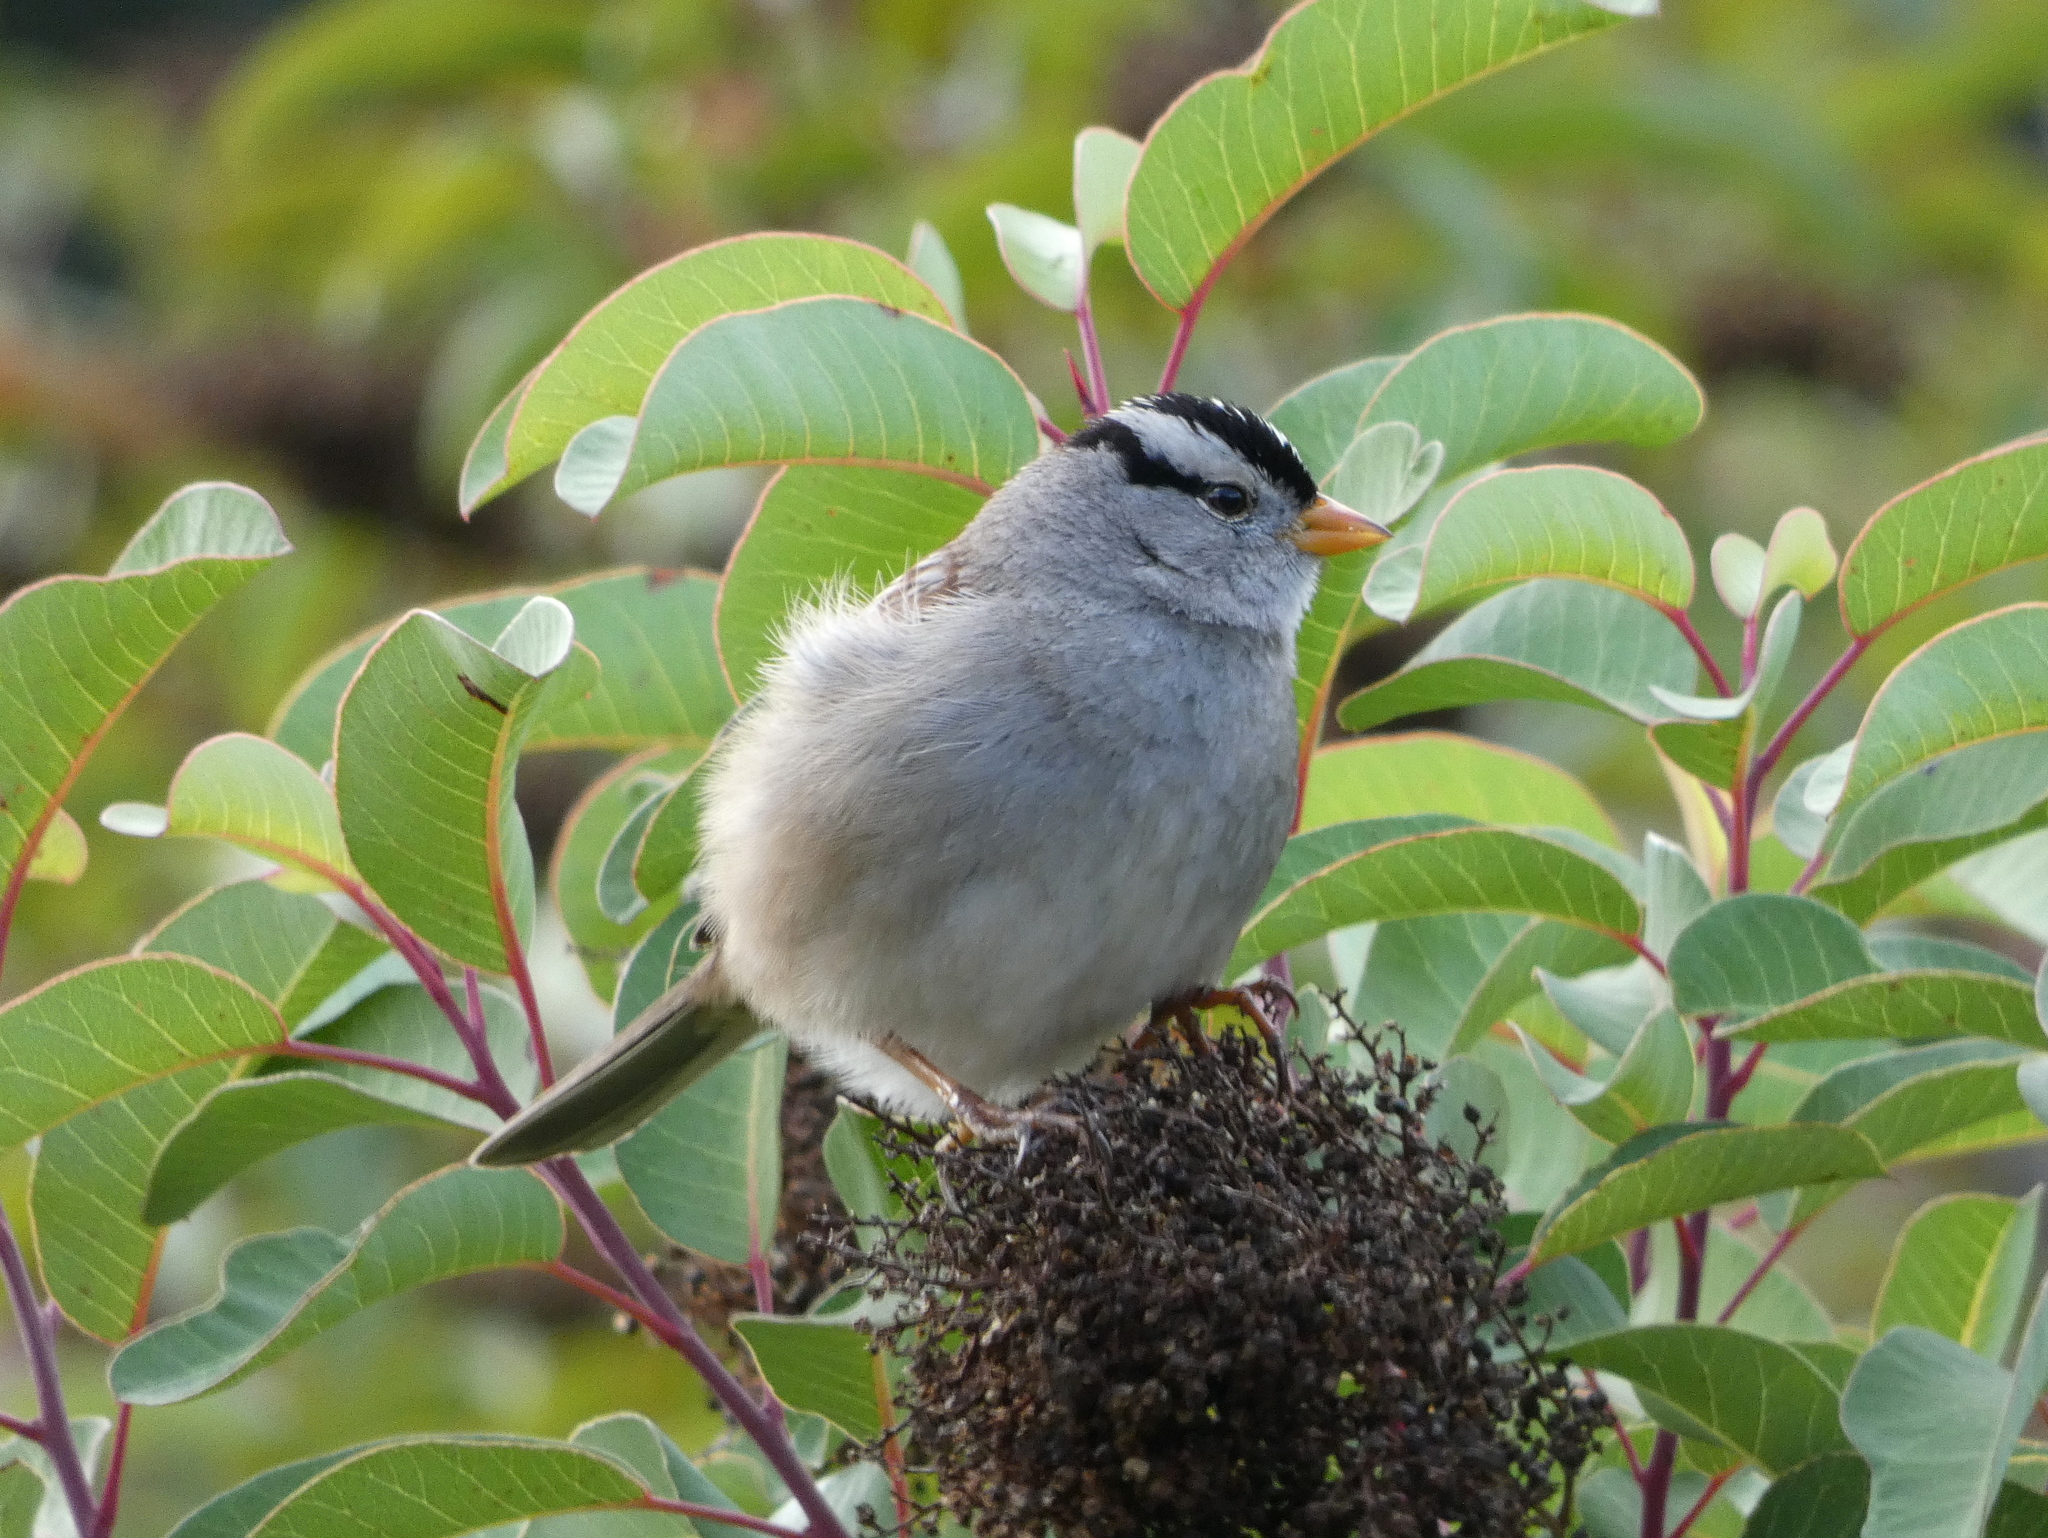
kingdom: Animalia
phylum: Chordata
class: Aves
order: Passeriformes
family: Passerellidae
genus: Zonotrichia
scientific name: Zonotrichia leucophrys
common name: White-crowned sparrow
